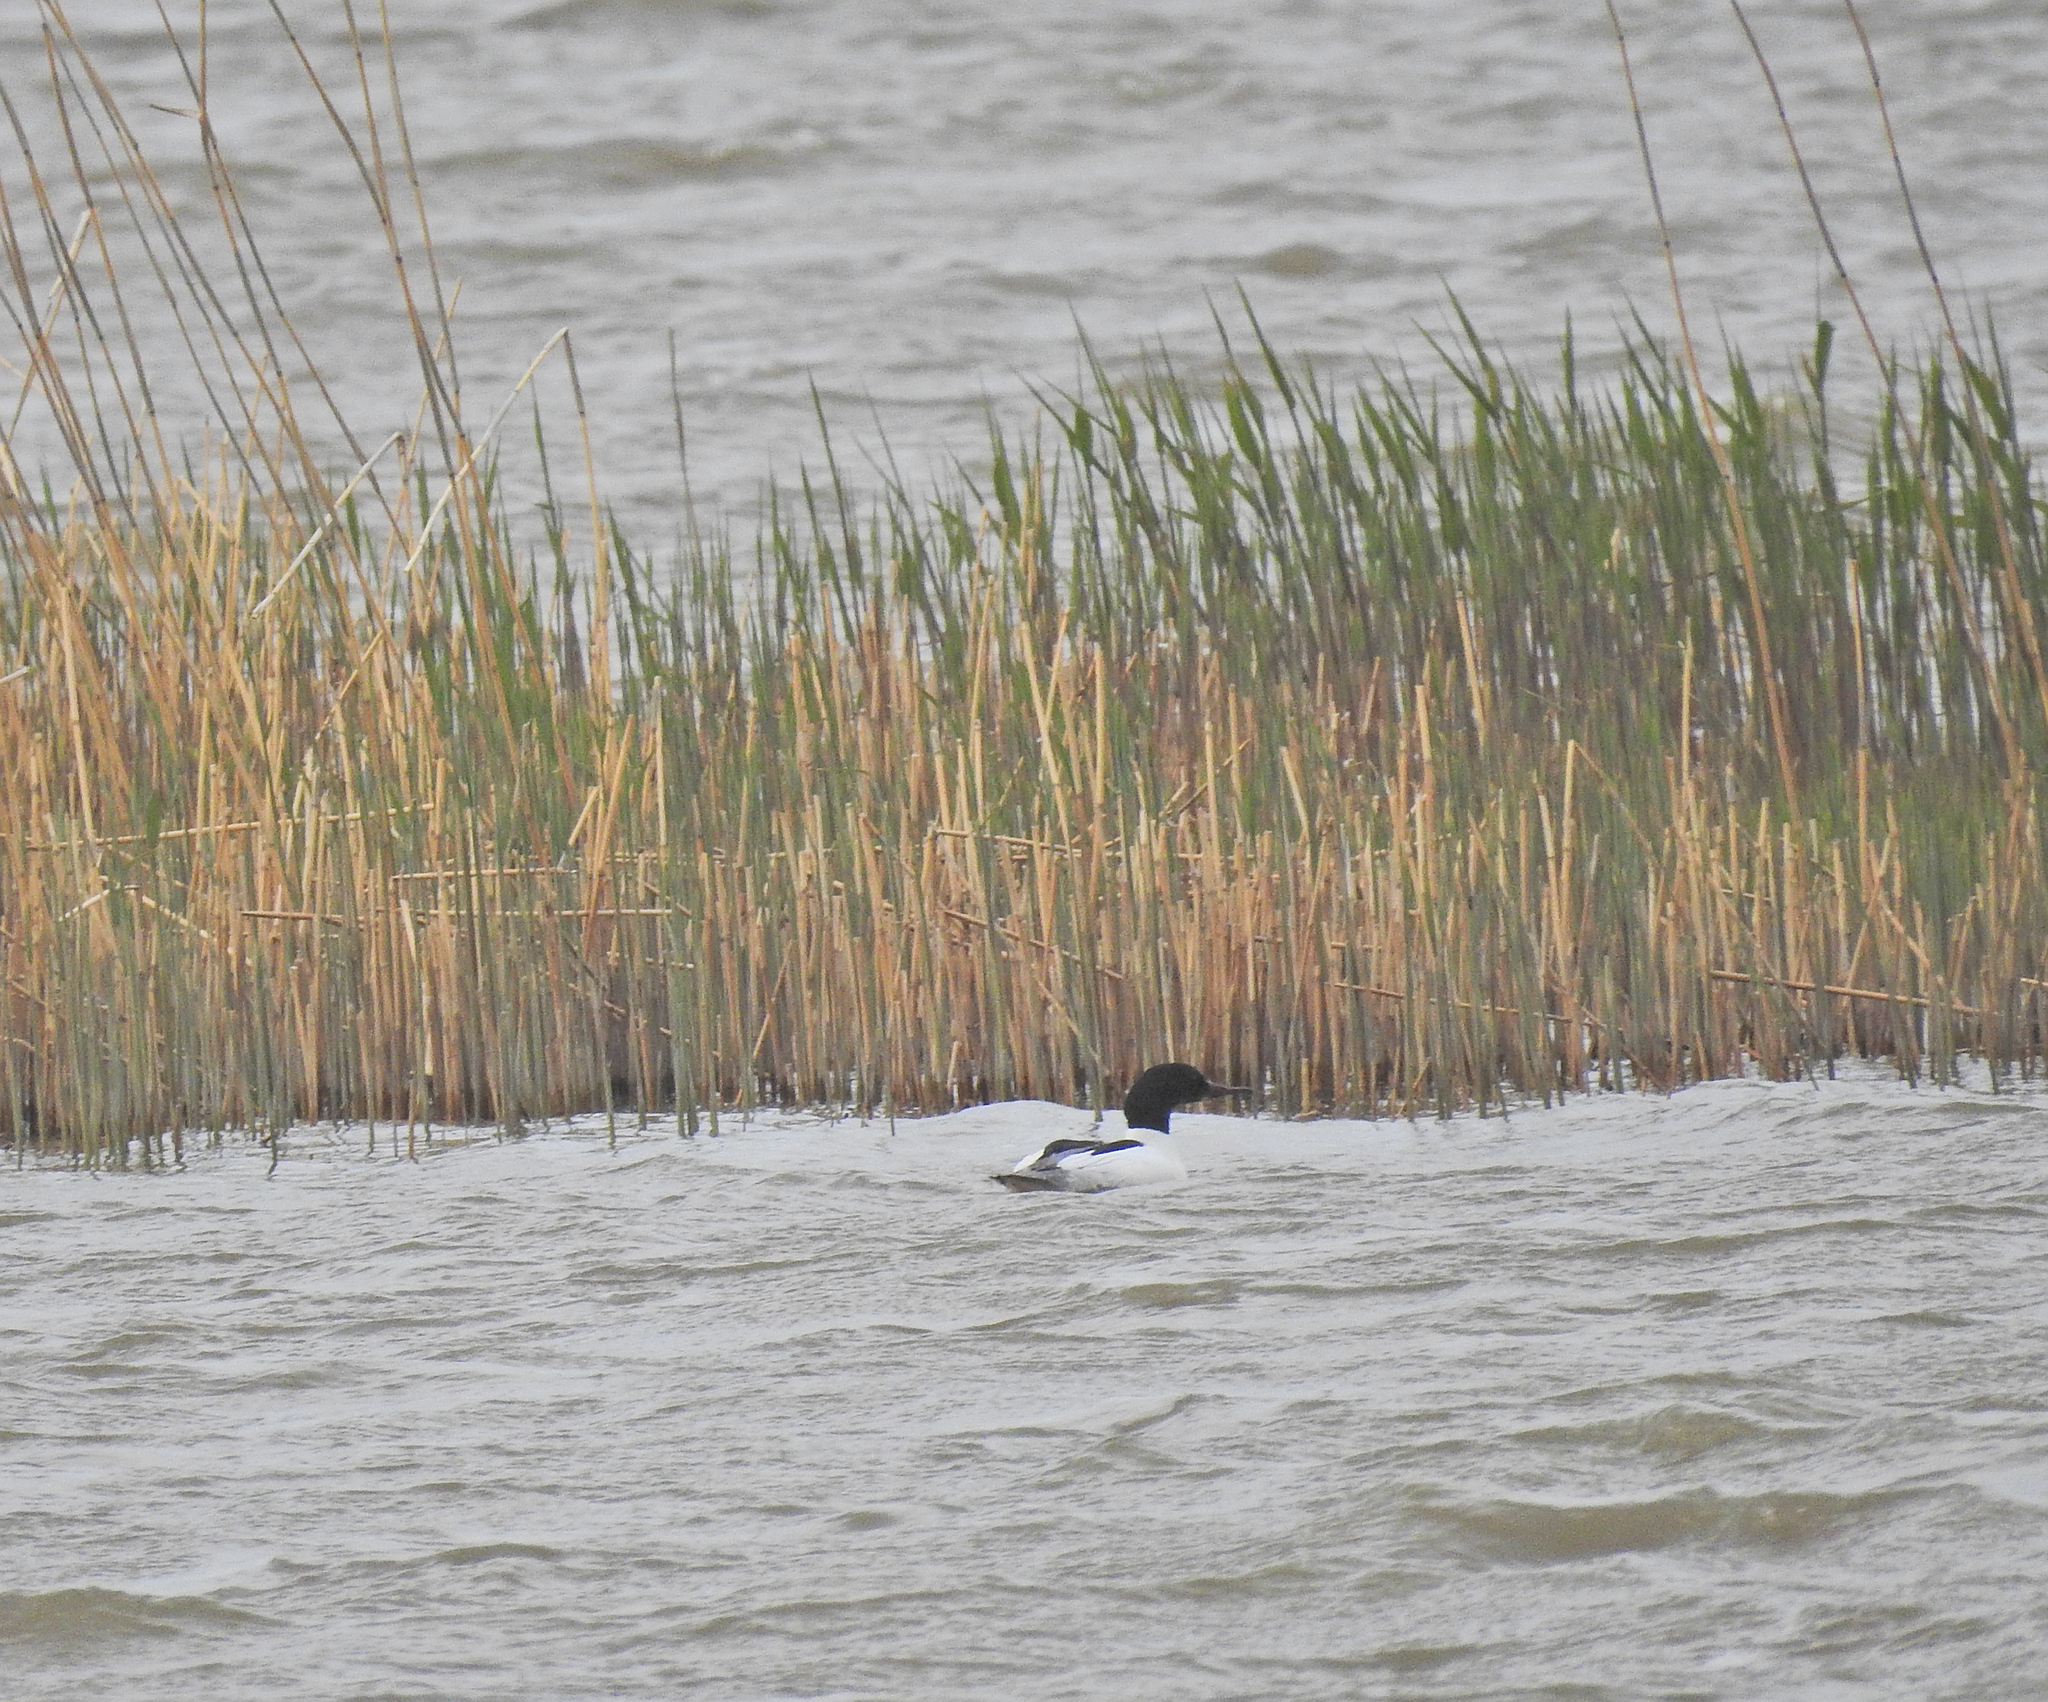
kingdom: Animalia
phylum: Chordata
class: Aves
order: Anseriformes
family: Anatidae
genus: Mergus
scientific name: Mergus merganser
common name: Common merganser
